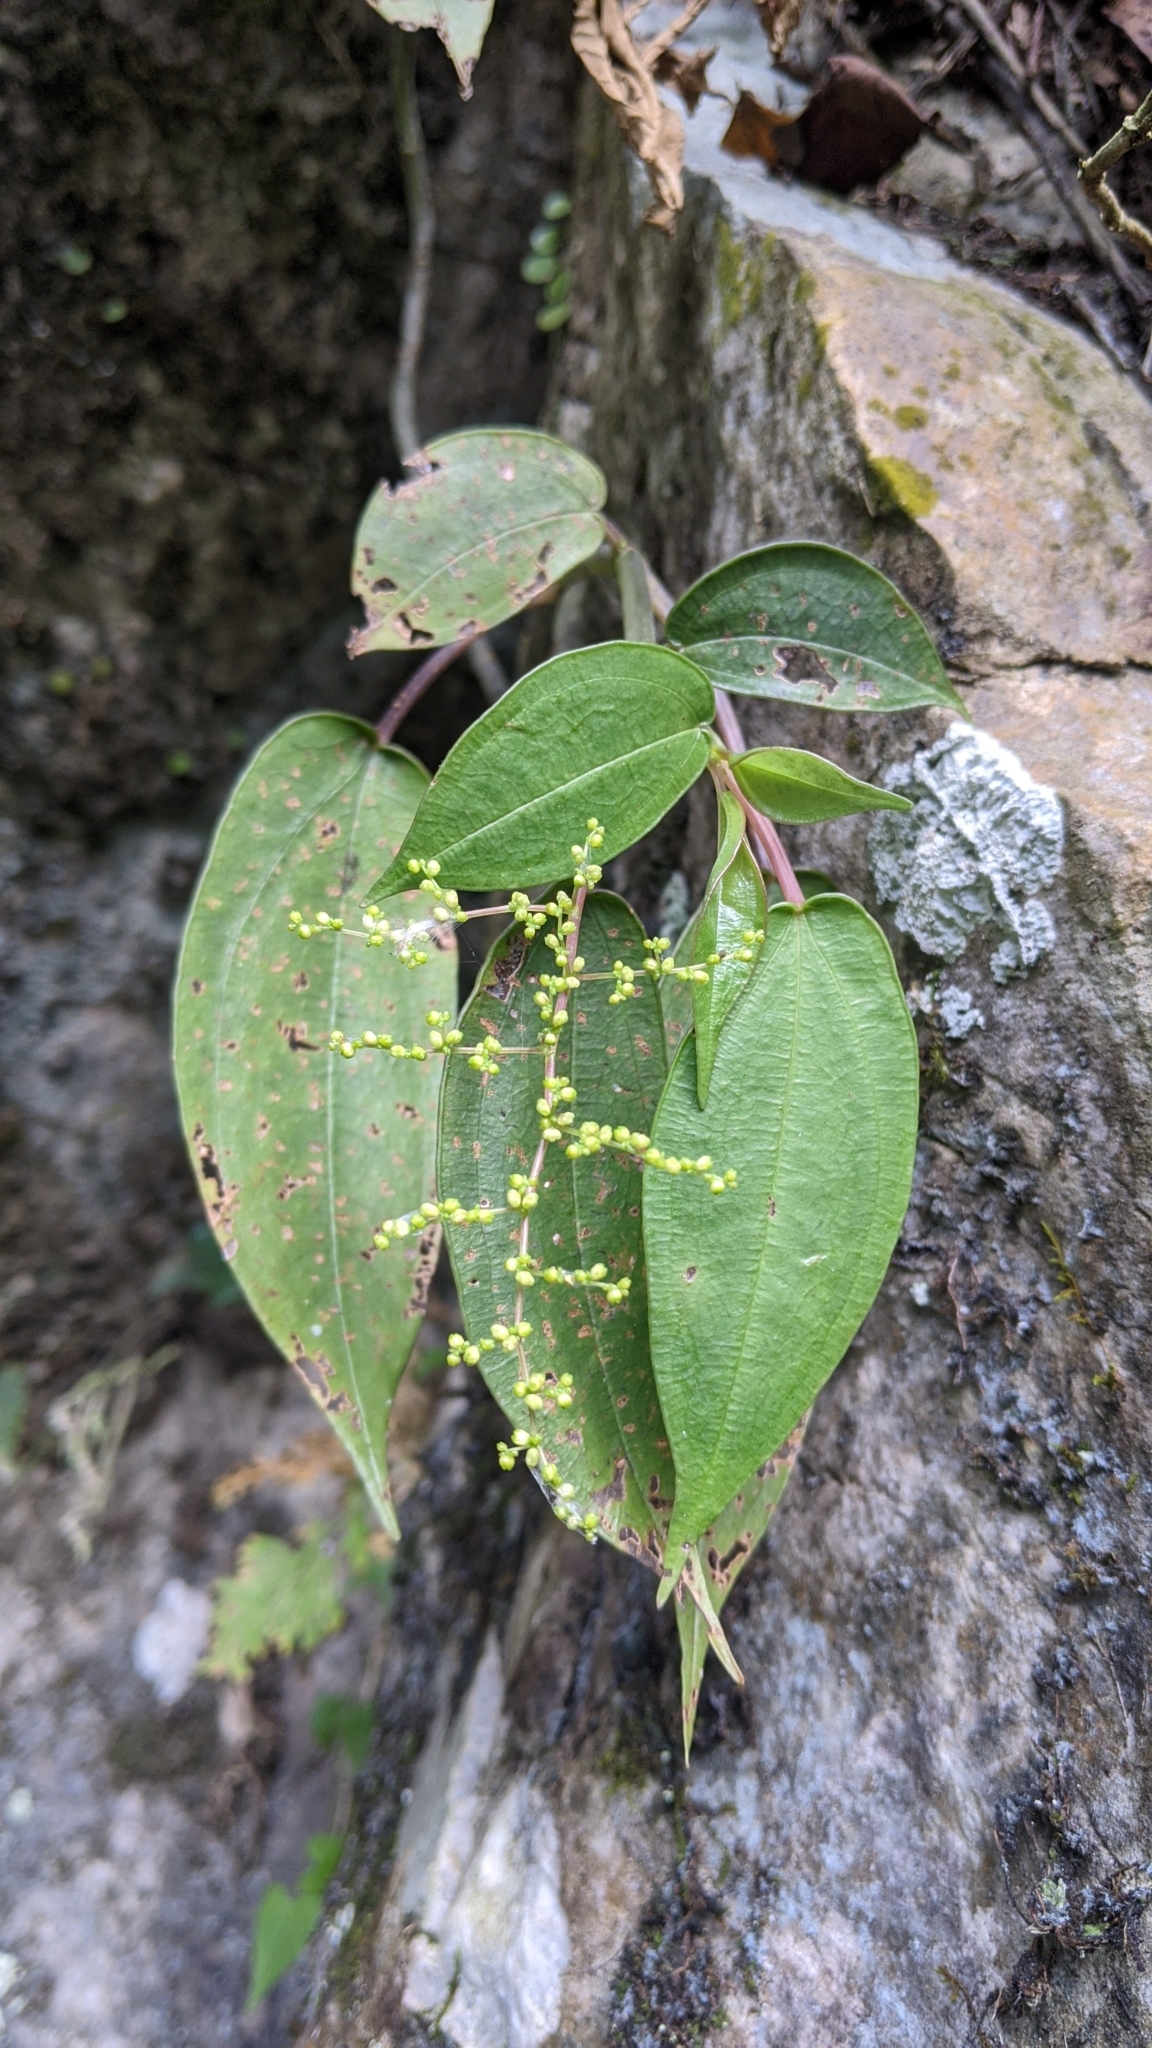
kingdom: Plantae
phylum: Tracheophyta
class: Magnoliopsida
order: Rosales
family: Urticaceae
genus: Pilea
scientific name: Pilea plataniflora
